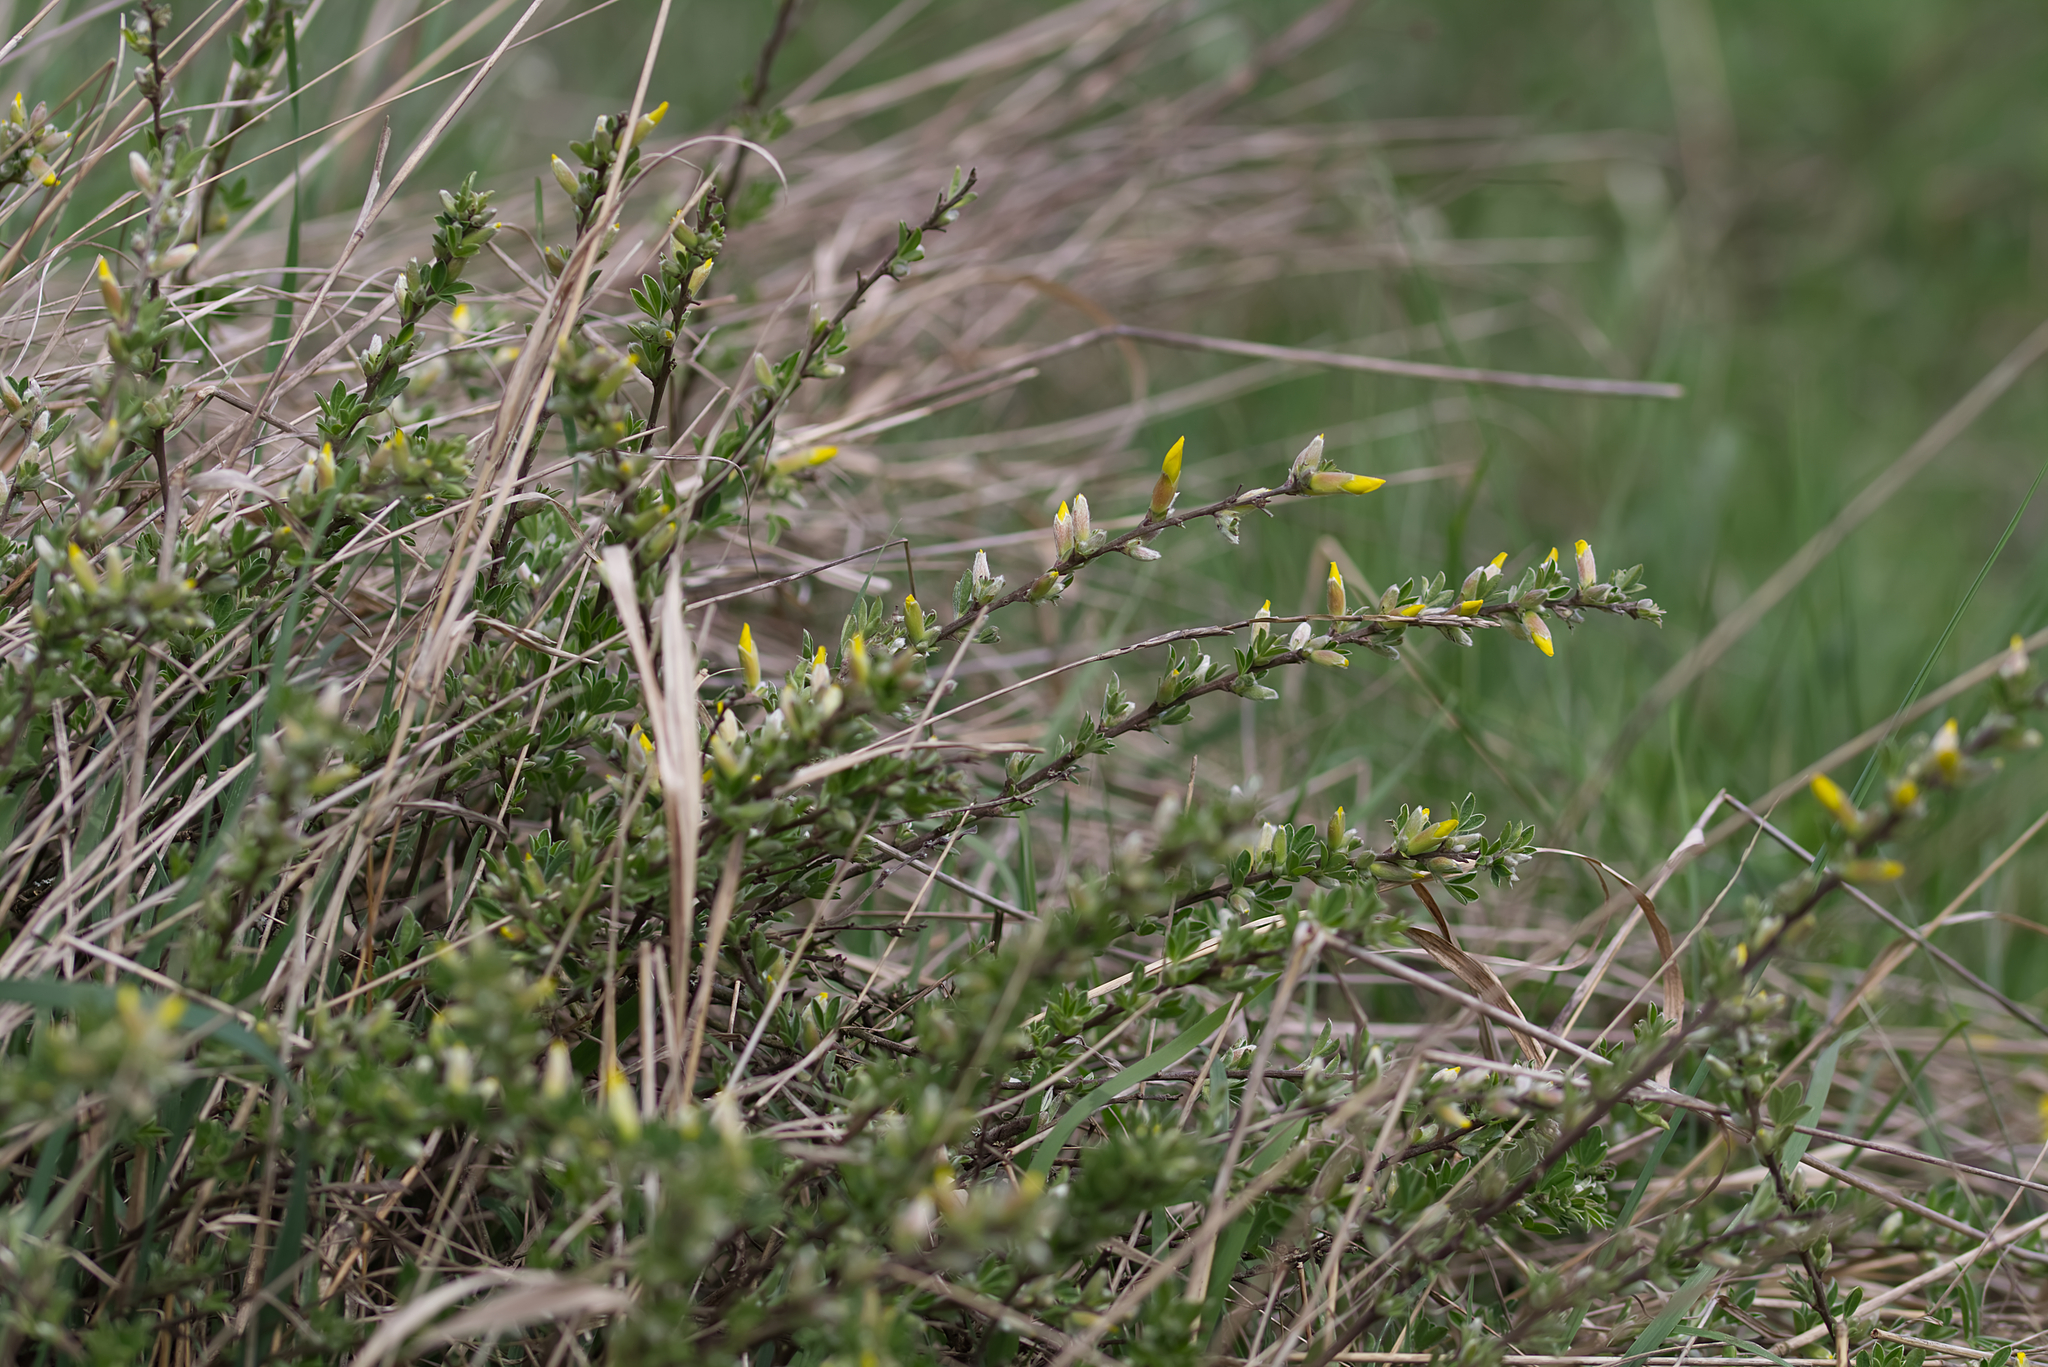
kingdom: Plantae
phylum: Tracheophyta
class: Magnoliopsida
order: Fabales
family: Fabaceae
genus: Chamaecytisus
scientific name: Chamaecytisus ratisbonensis
